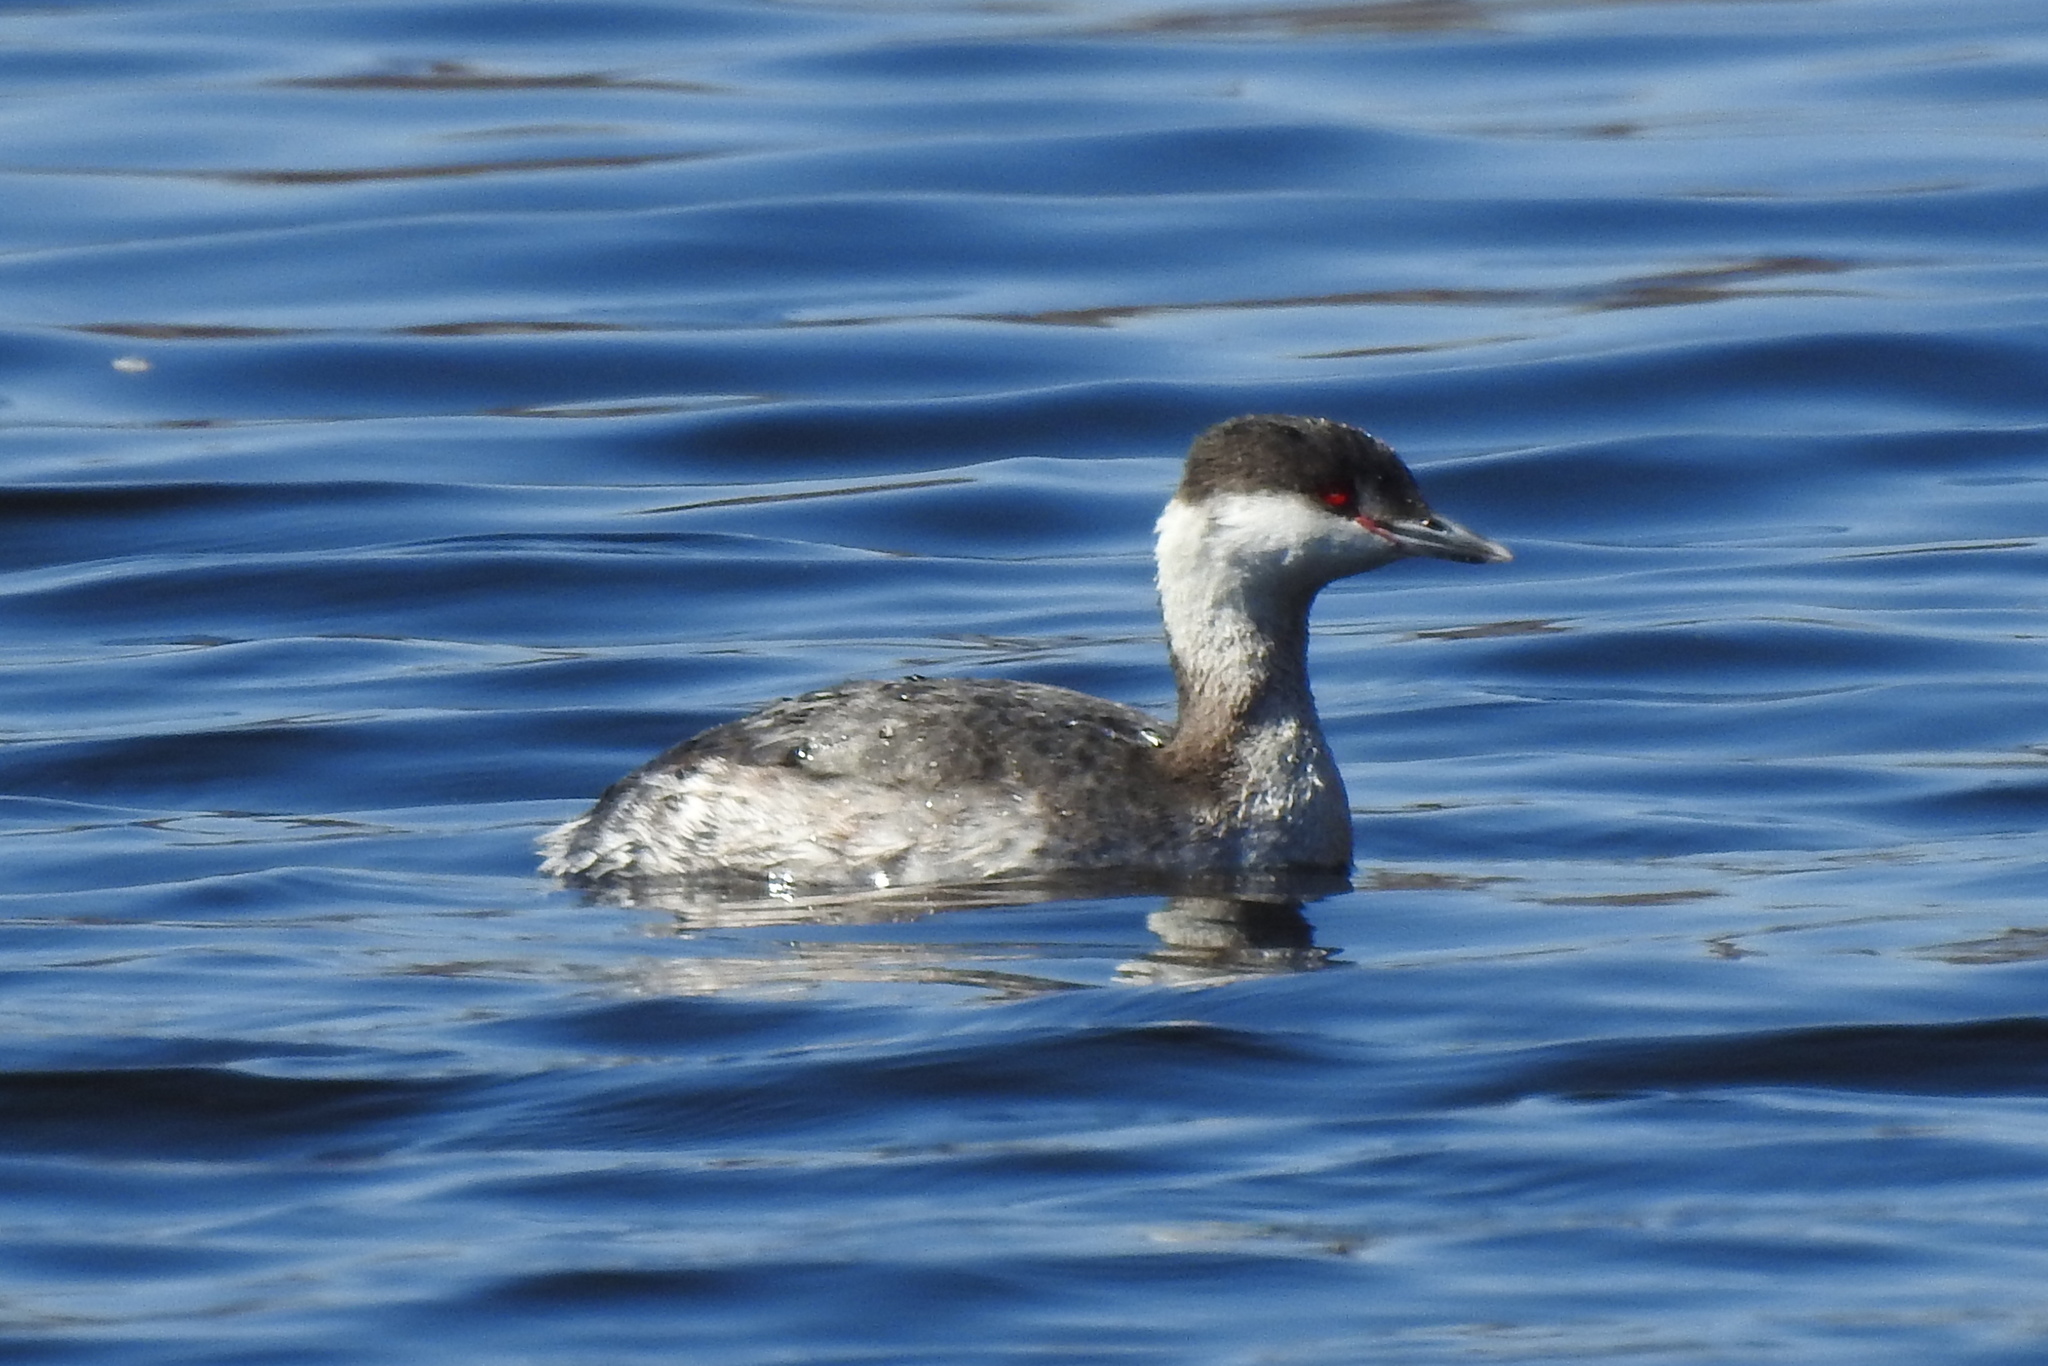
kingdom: Animalia
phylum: Chordata
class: Aves
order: Podicipediformes
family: Podicipedidae
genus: Podiceps
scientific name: Podiceps auritus
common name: Horned grebe
